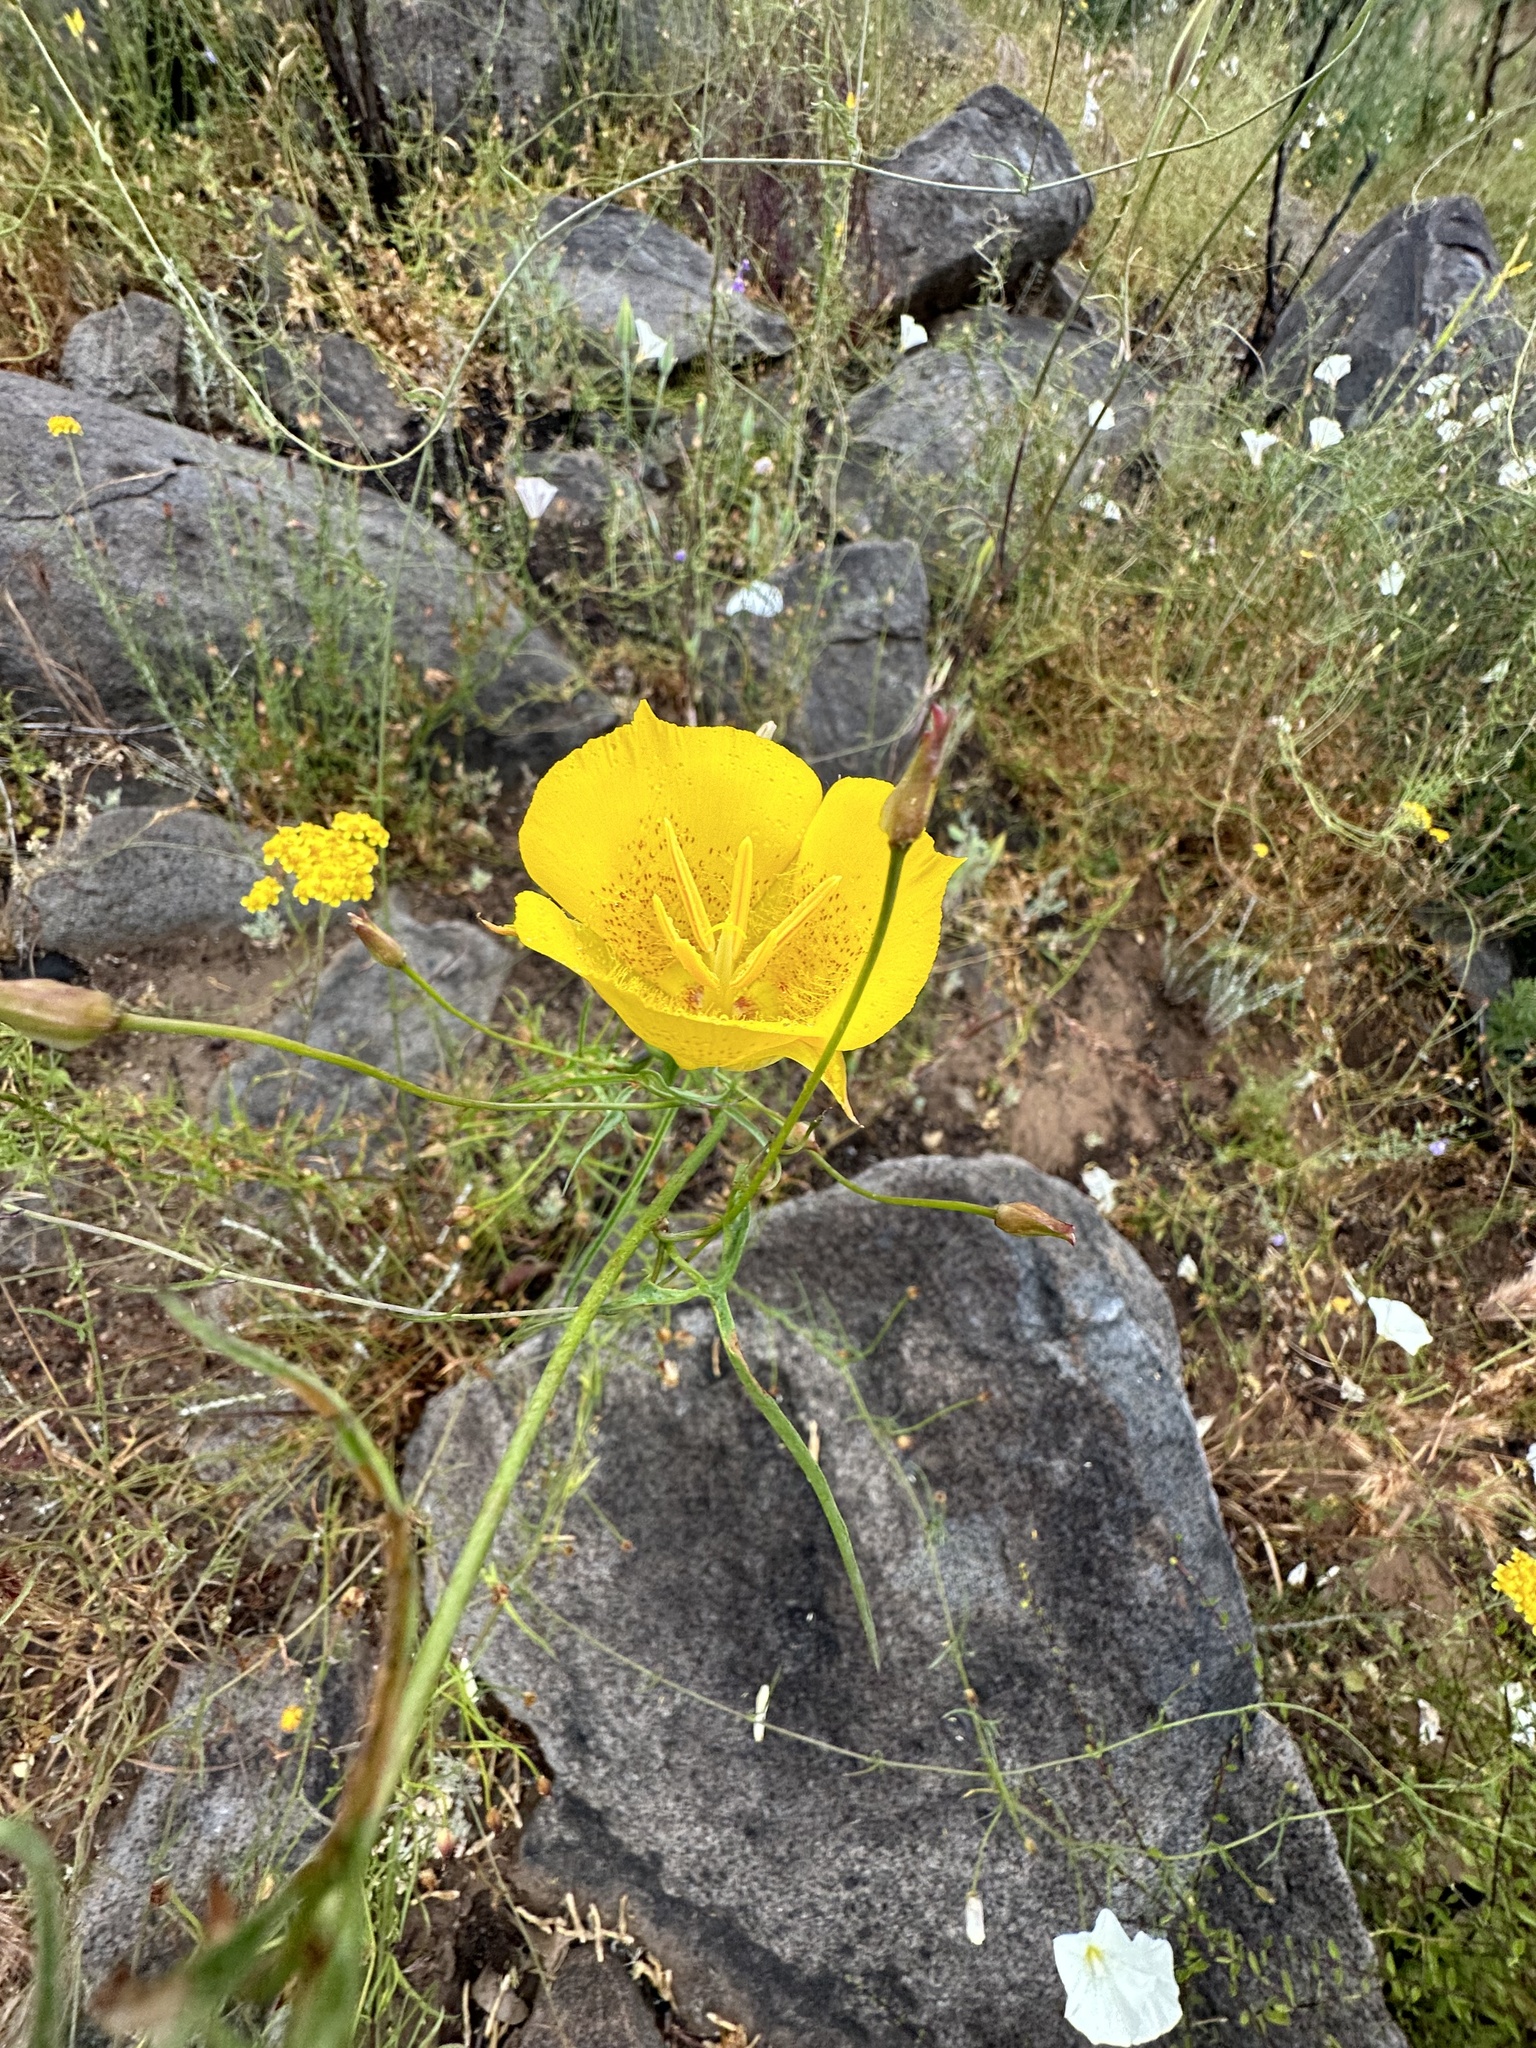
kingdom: Plantae
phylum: Tracheophyta
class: Liliopsida
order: Liliales
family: Liliaceae
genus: Calochortus
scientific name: Calochortus weedii
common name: Weed's mariposa-lily
